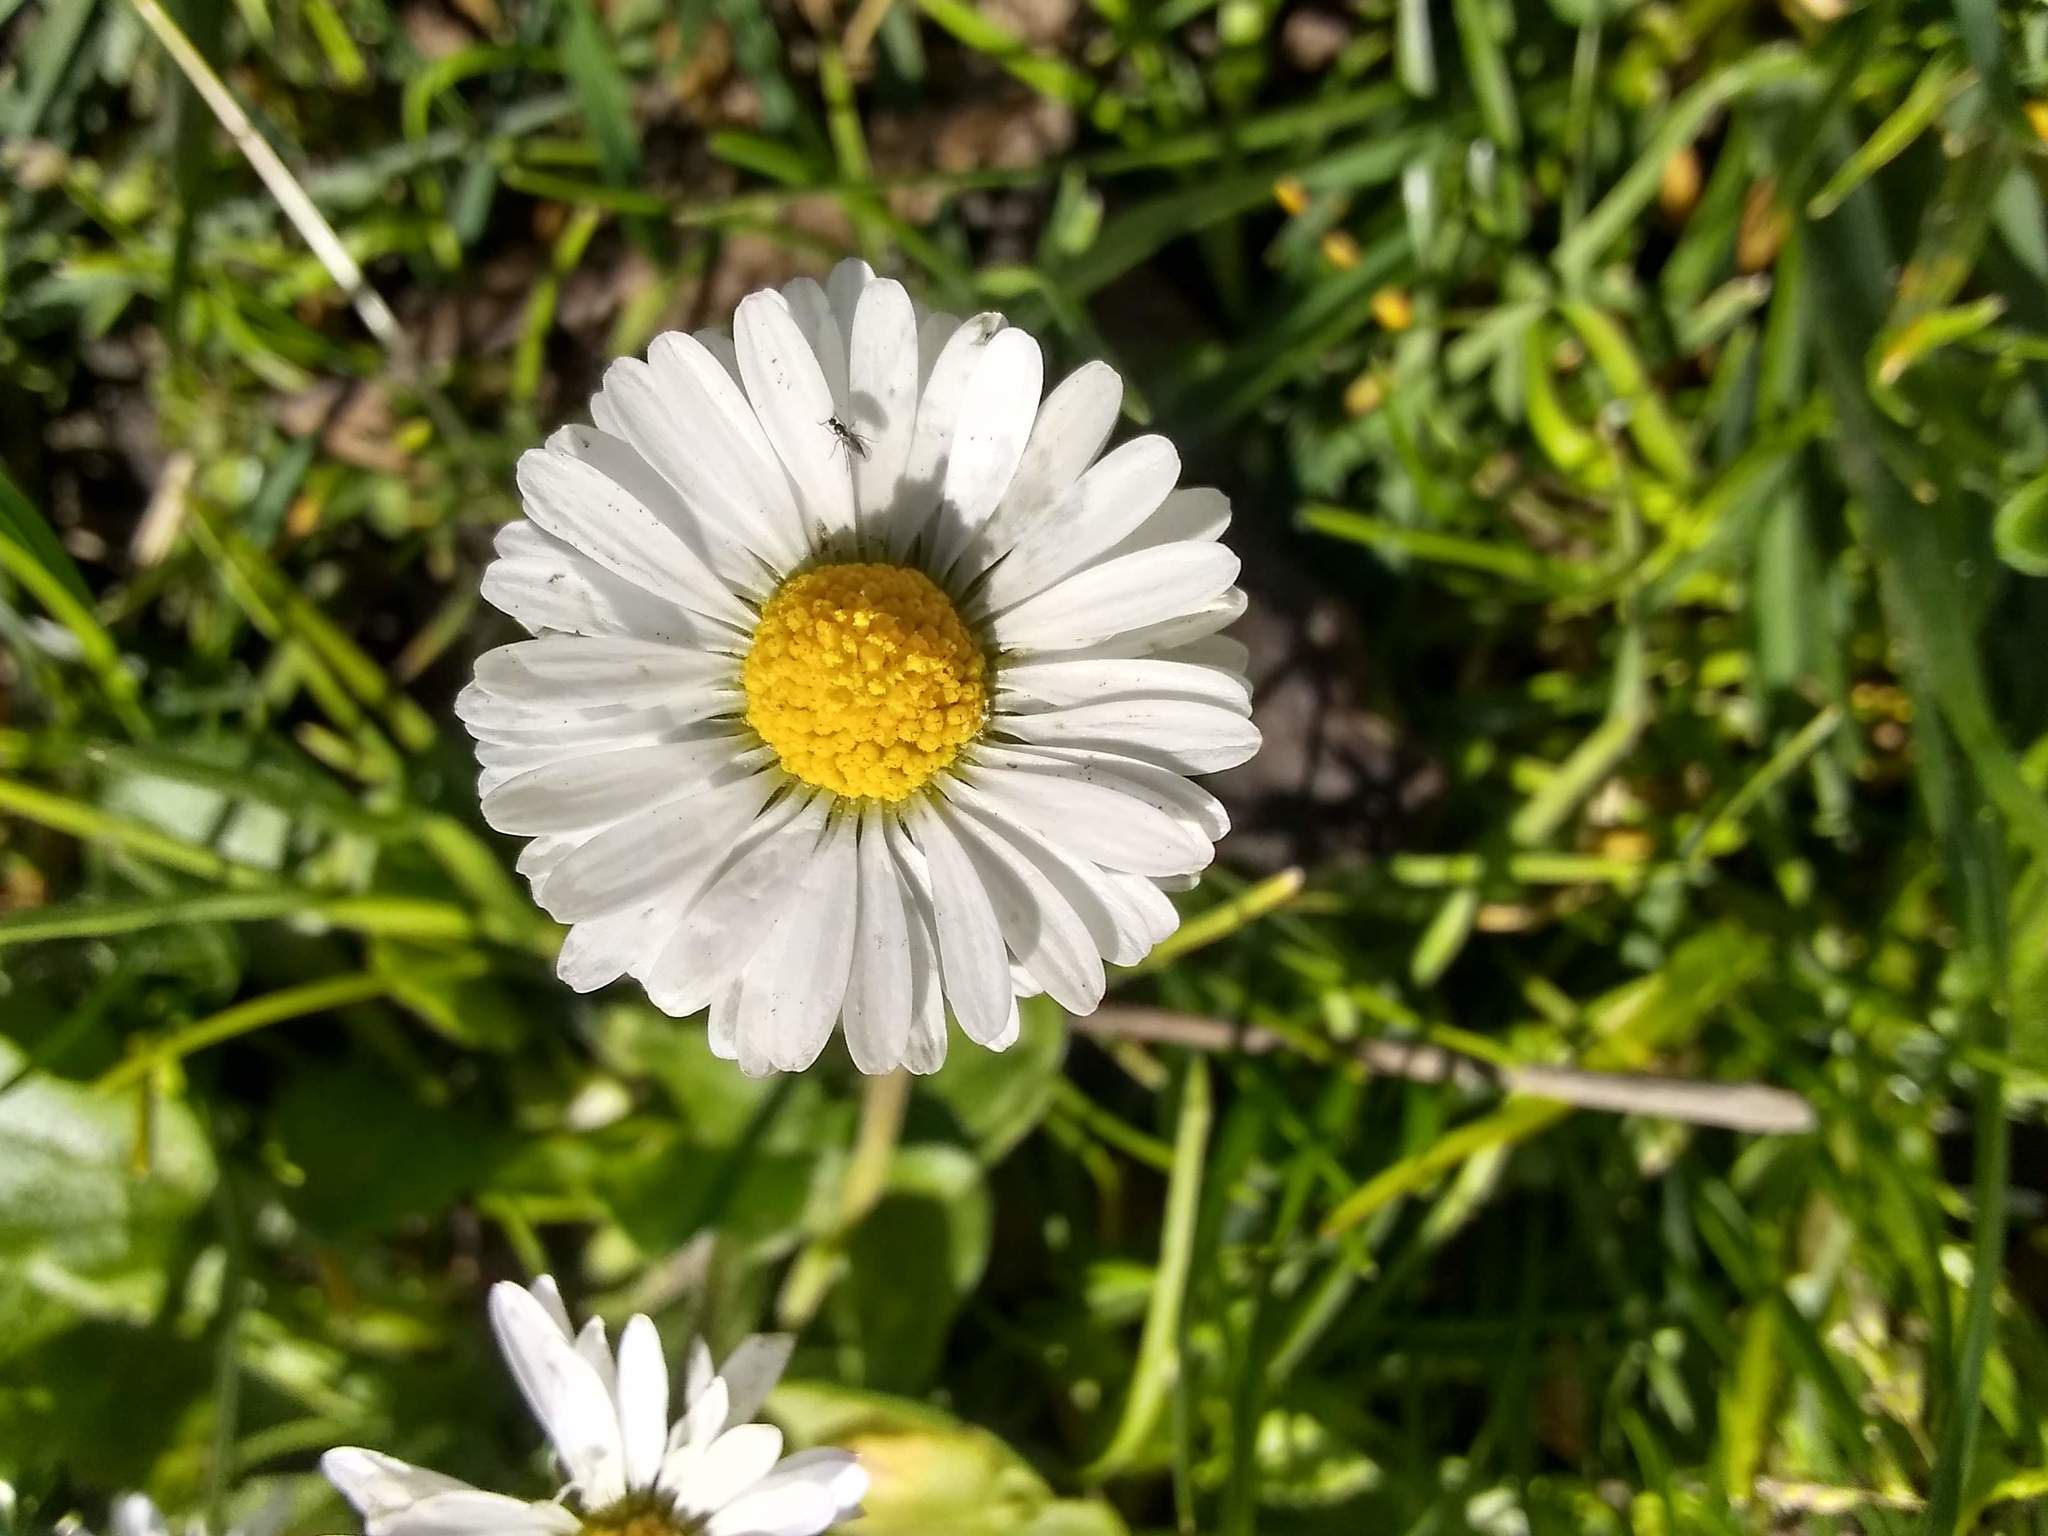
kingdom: Plantae
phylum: Tracheophyta
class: Magnoliopsida
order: Asterales
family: Asteraceae
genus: Bellis
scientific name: Bellis perennis
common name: Lawndaisy
